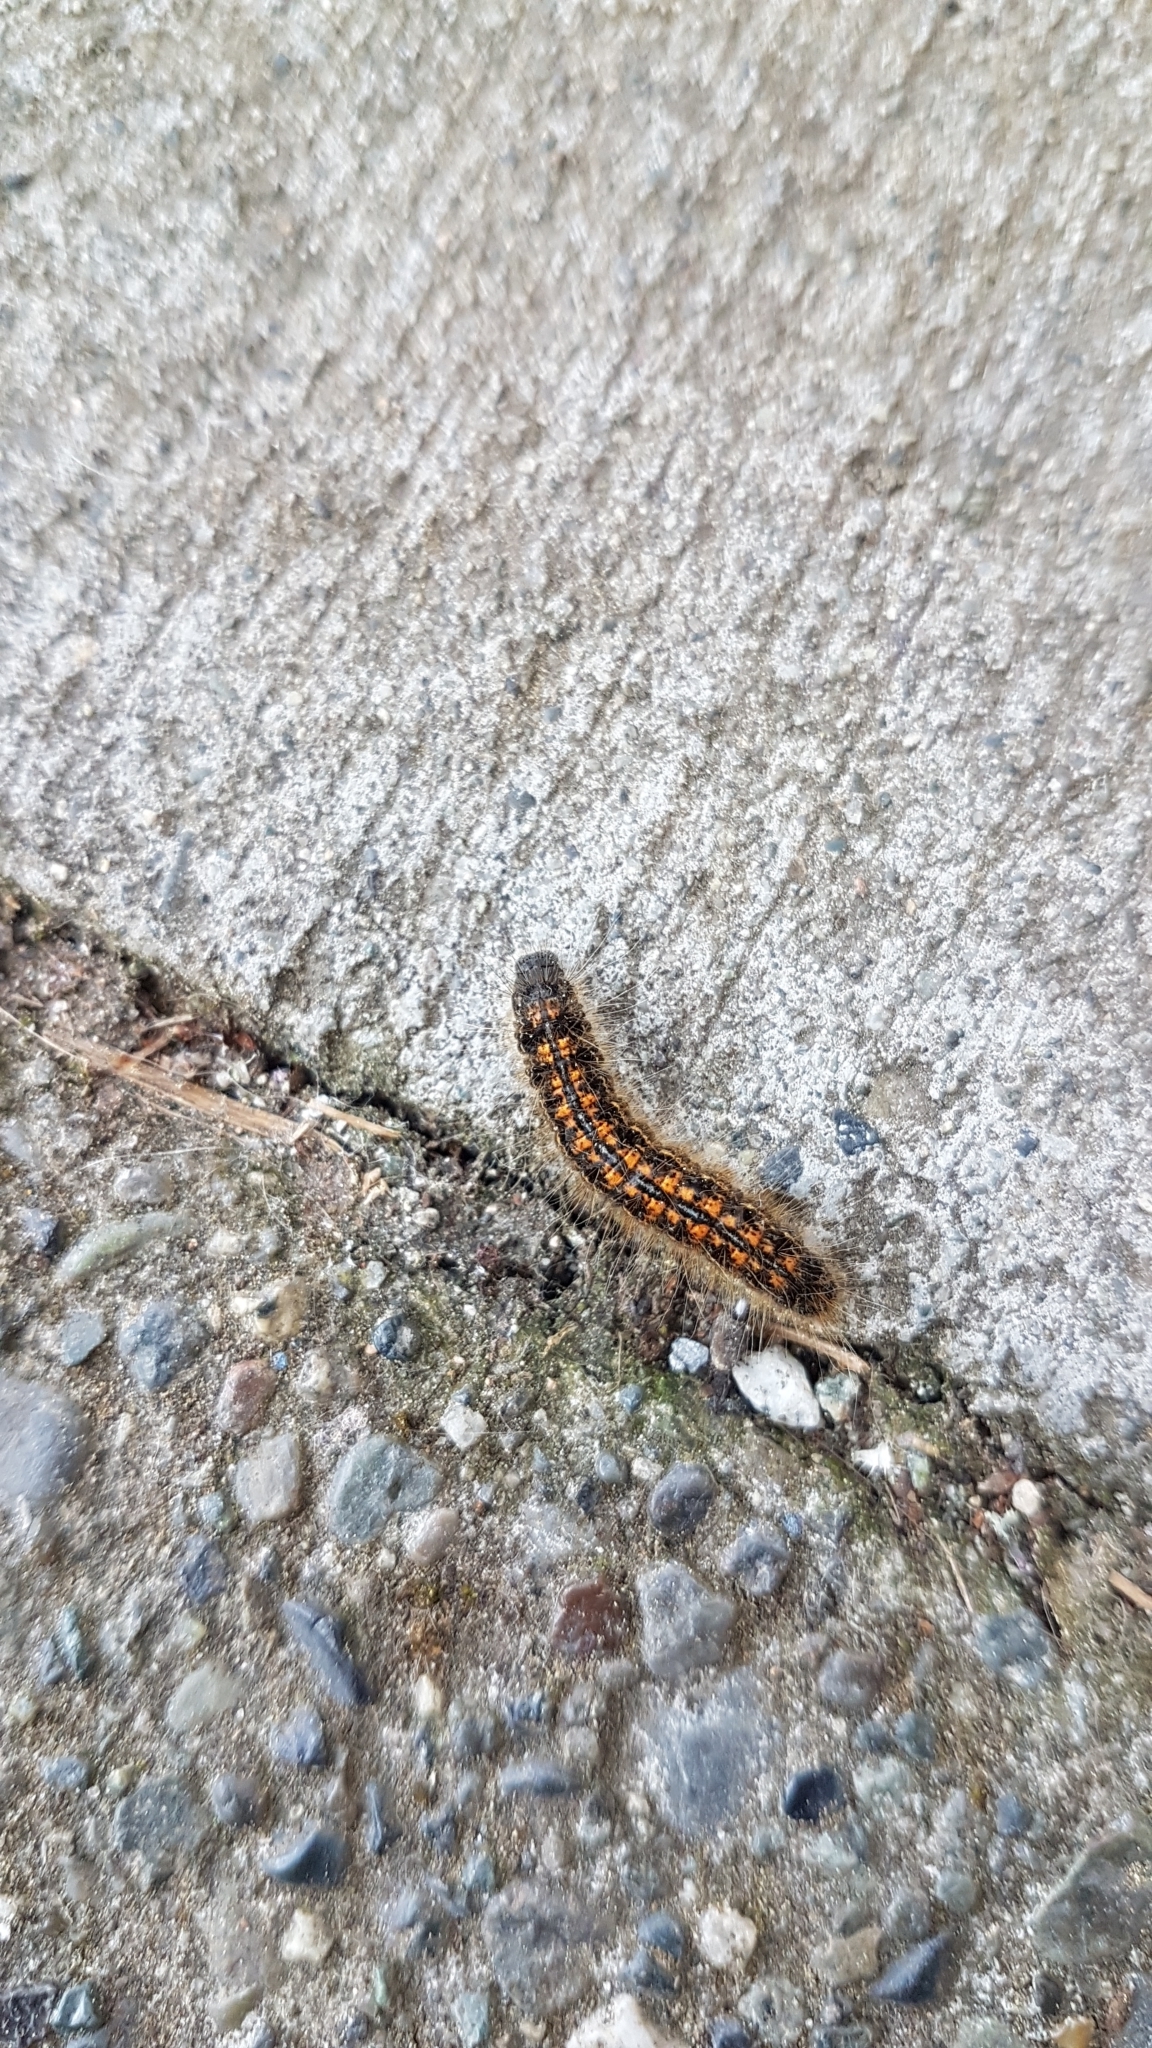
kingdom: Animalia
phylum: Arthropoda
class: Insecta
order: Lepidoptera
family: Lasiocampidae
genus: Malacosoma
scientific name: Malacosoma californica
